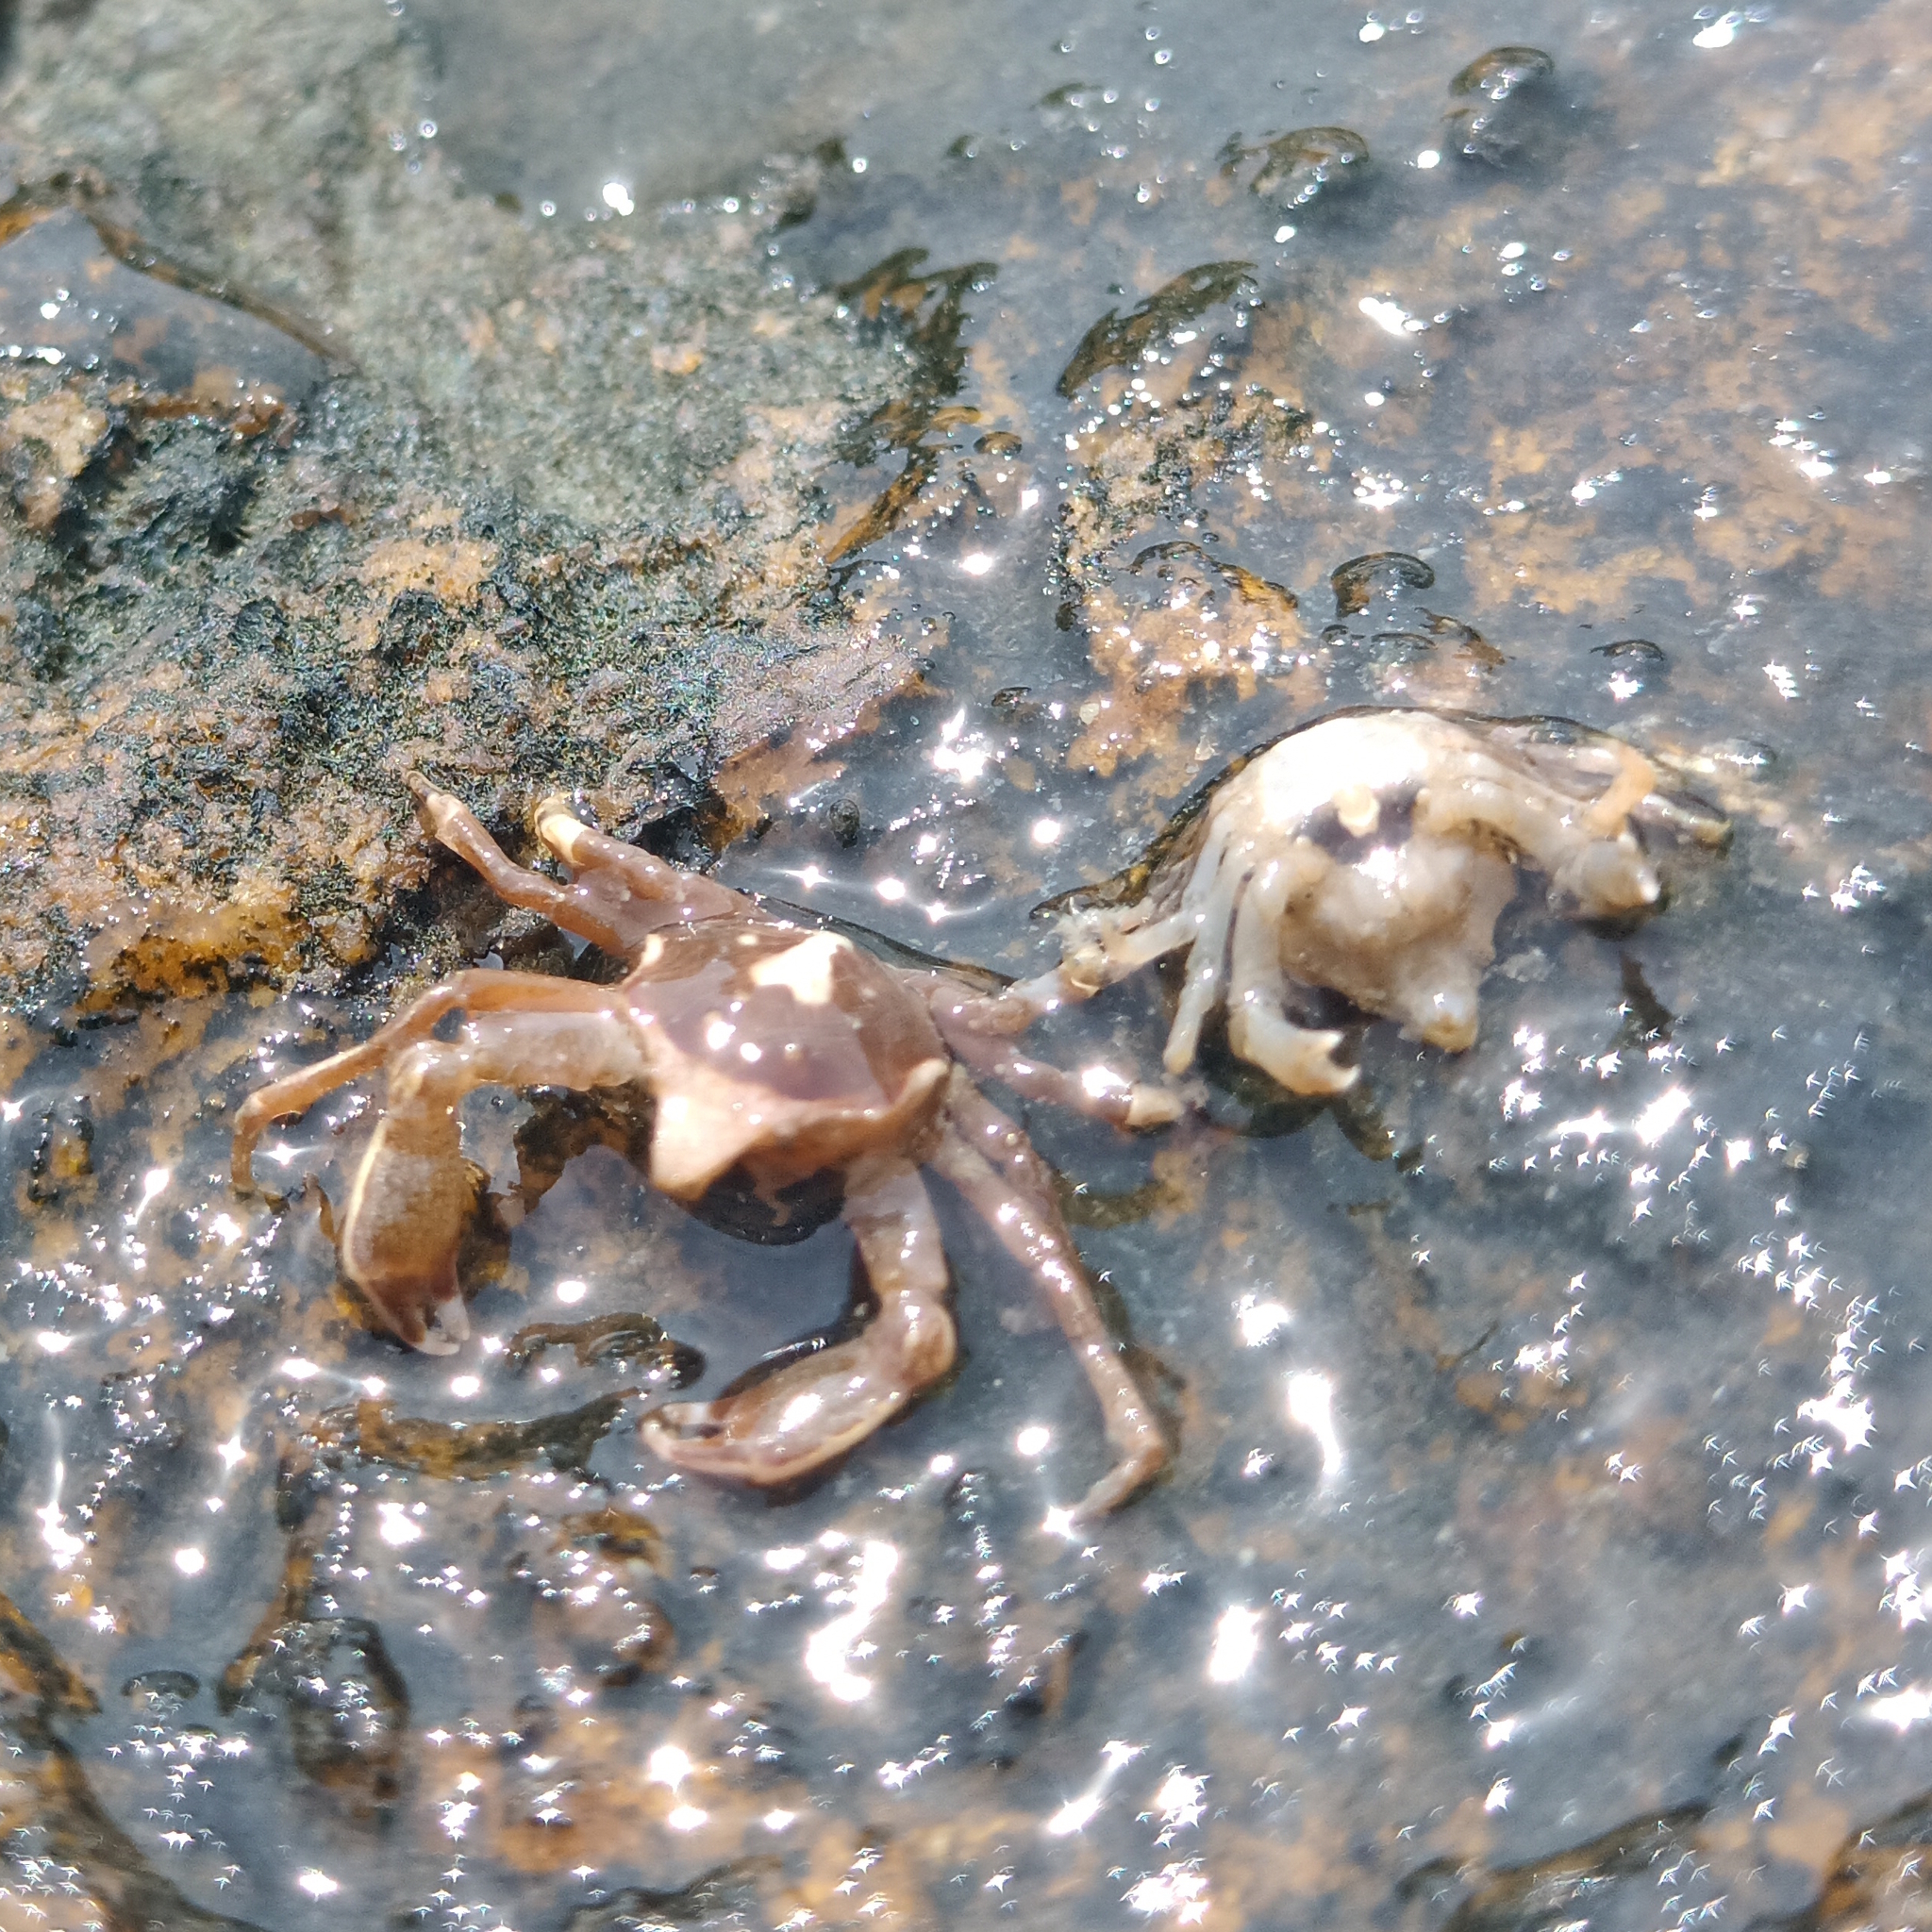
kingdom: Animalia
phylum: Arthropoda
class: Malacostraca
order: Decapoda
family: Epialtidae
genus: Epialtus
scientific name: Epialtus brasiliensis
